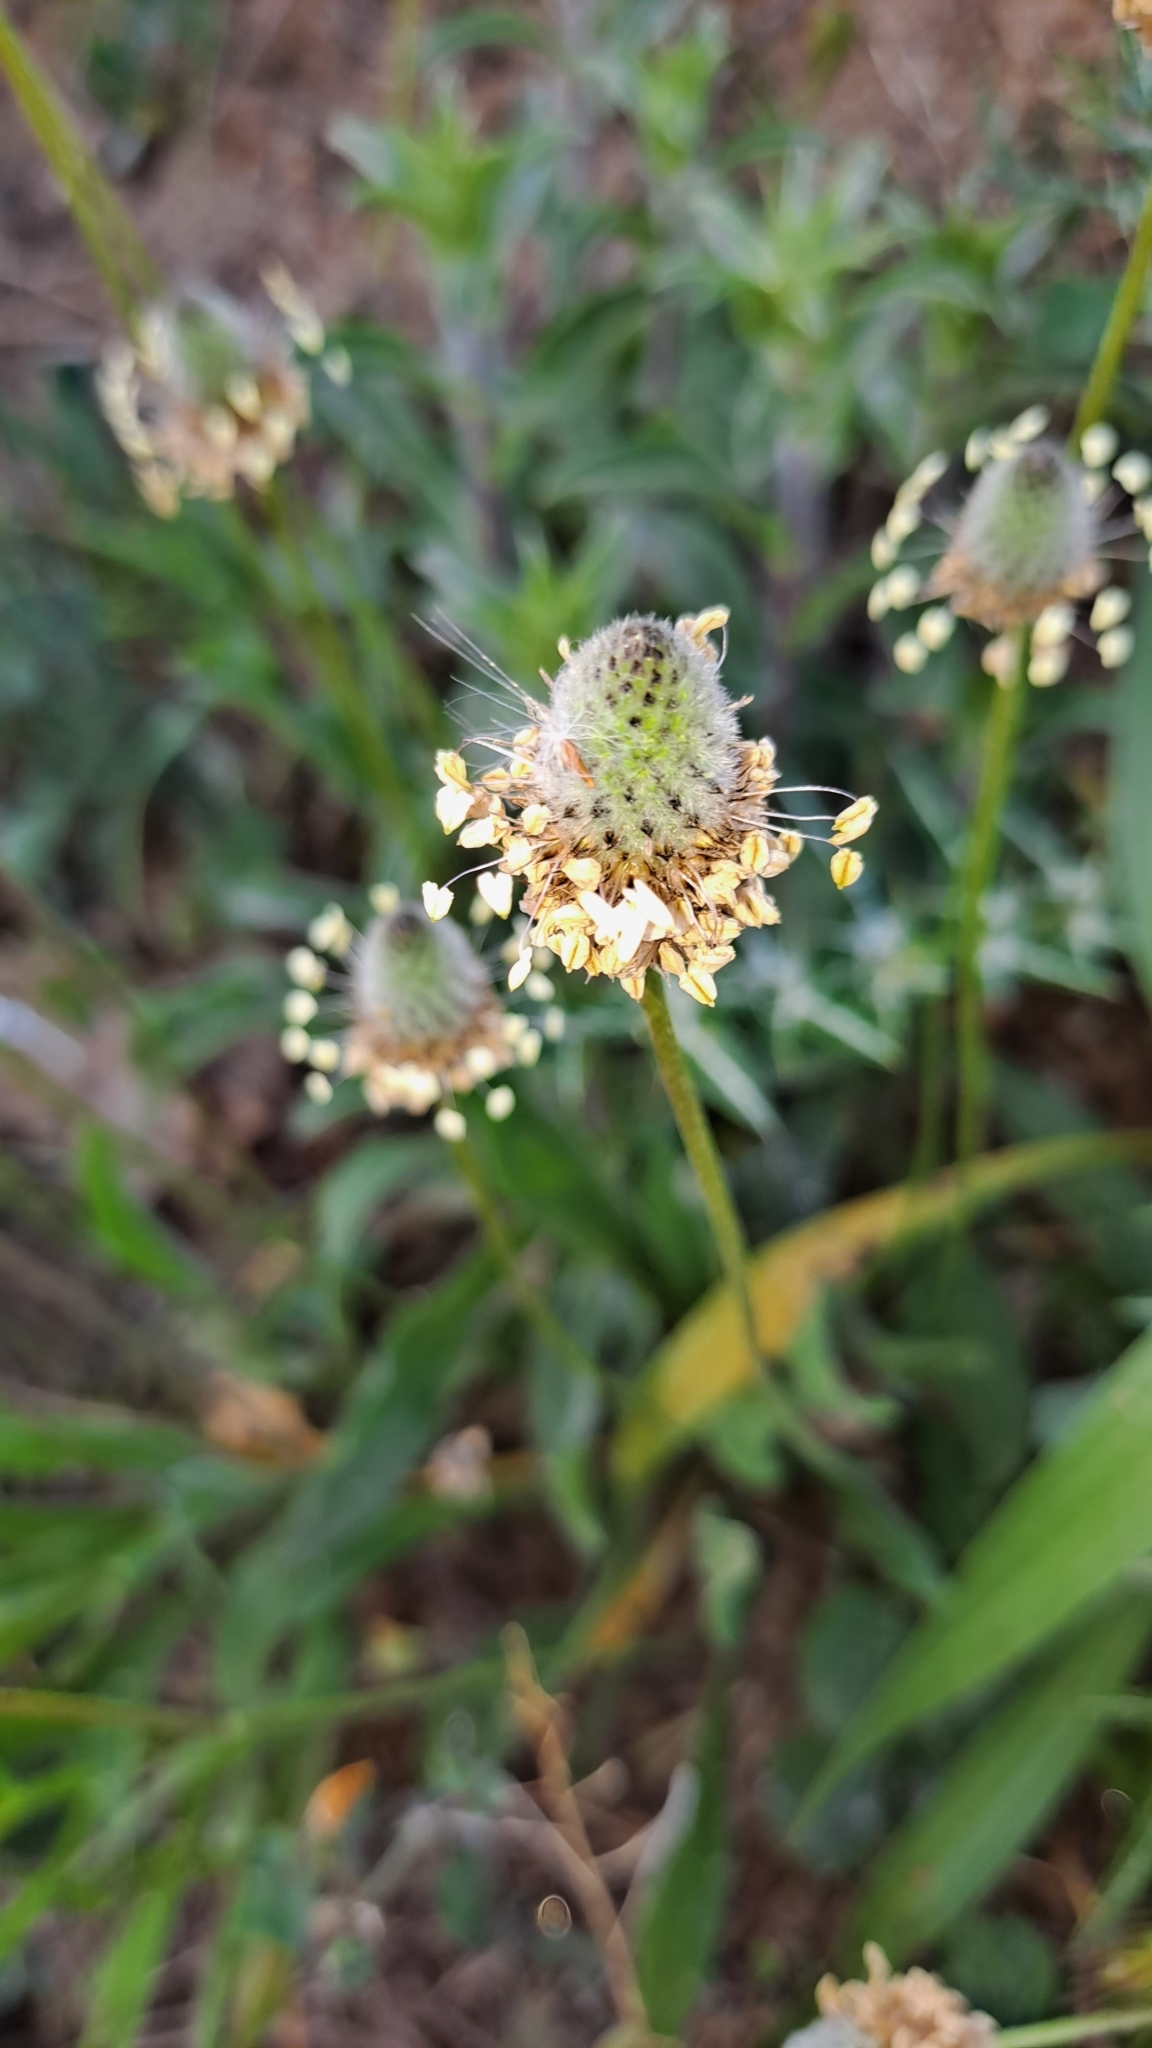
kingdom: Plantae
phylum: Tracheophyta
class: Magnoliopsida
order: Lamiales
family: Plantaginaceae
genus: Plantago
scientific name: Plantago lagopus
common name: Hare-foot plantain
